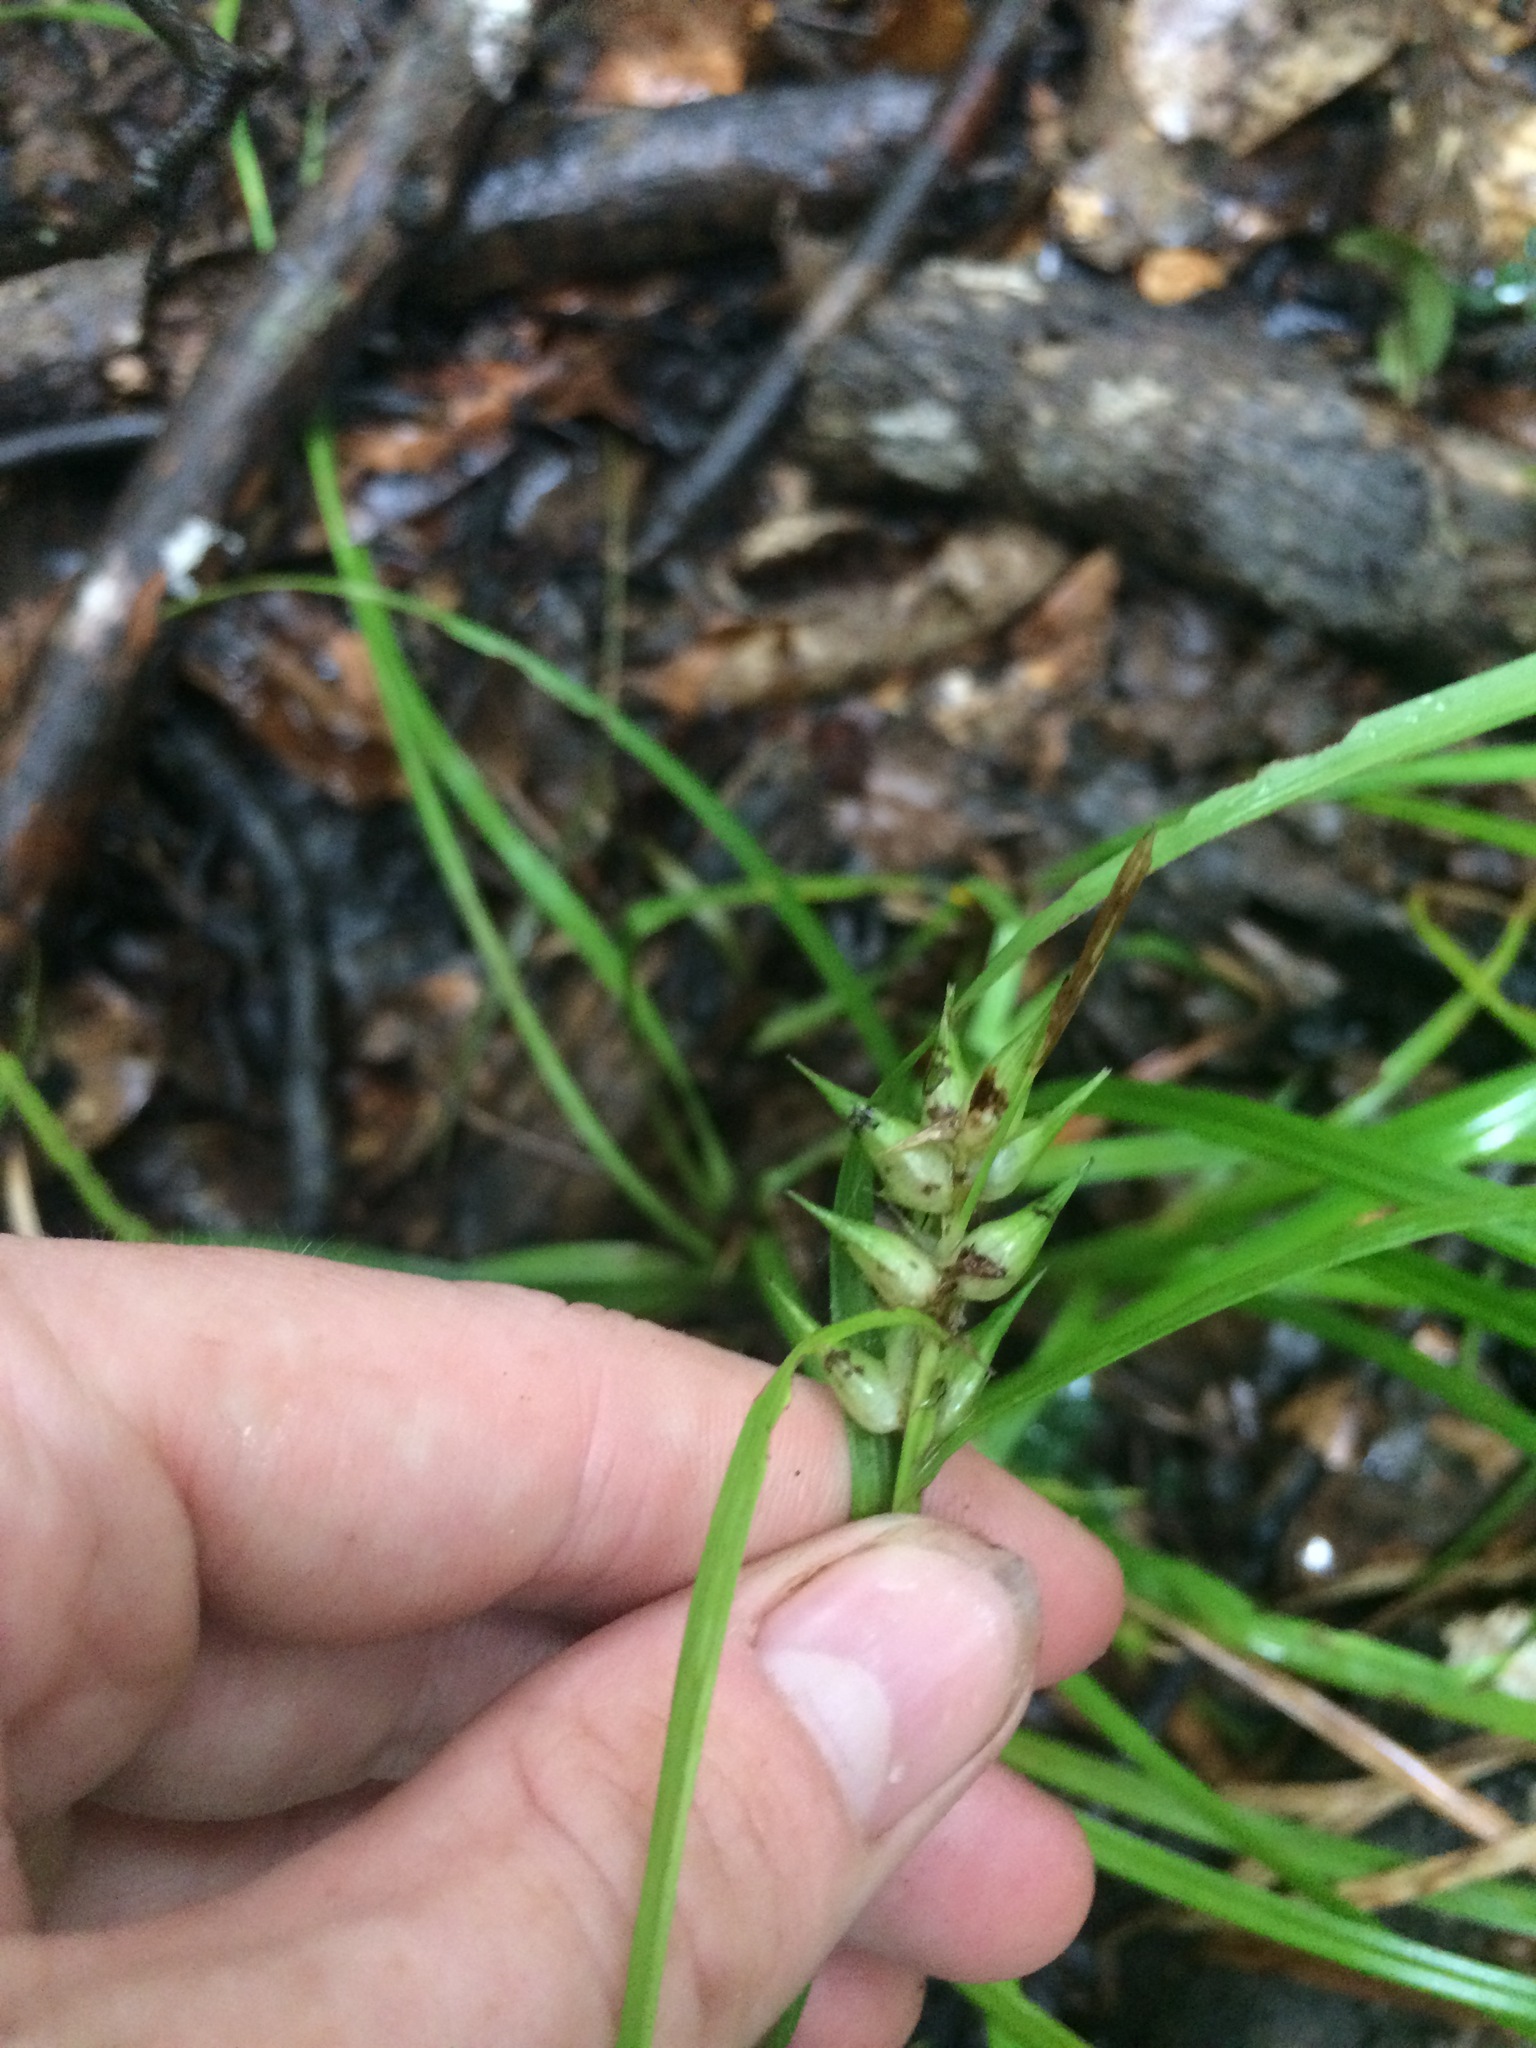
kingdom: Plantae
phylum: Tracheophyta
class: Liliopsida
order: Poales
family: Cyperaceae
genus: Carex
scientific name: Carex intumescens
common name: Greater bladder sedge
